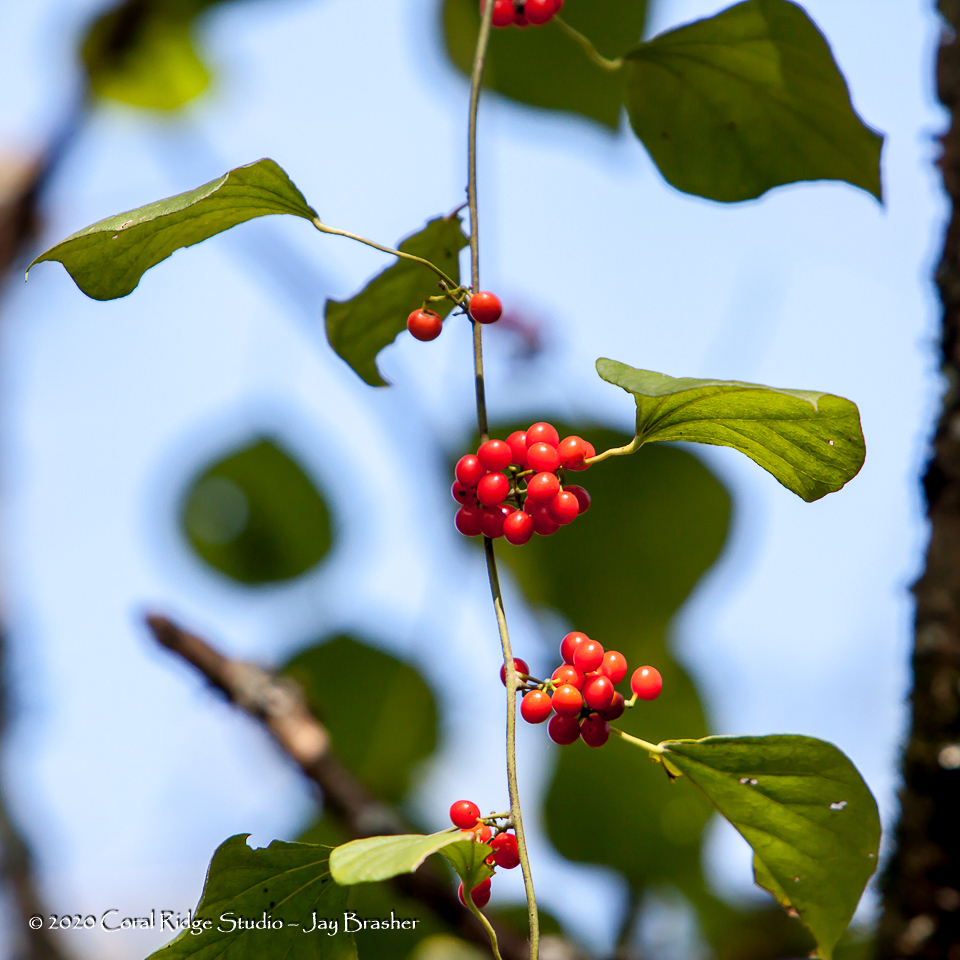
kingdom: Plantae
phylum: Tracheophyta
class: Magnoliopsida
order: Ranunculales
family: Menispermaceae
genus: Cocculus
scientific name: Cocculus carolinus
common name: Carolina moonseed
